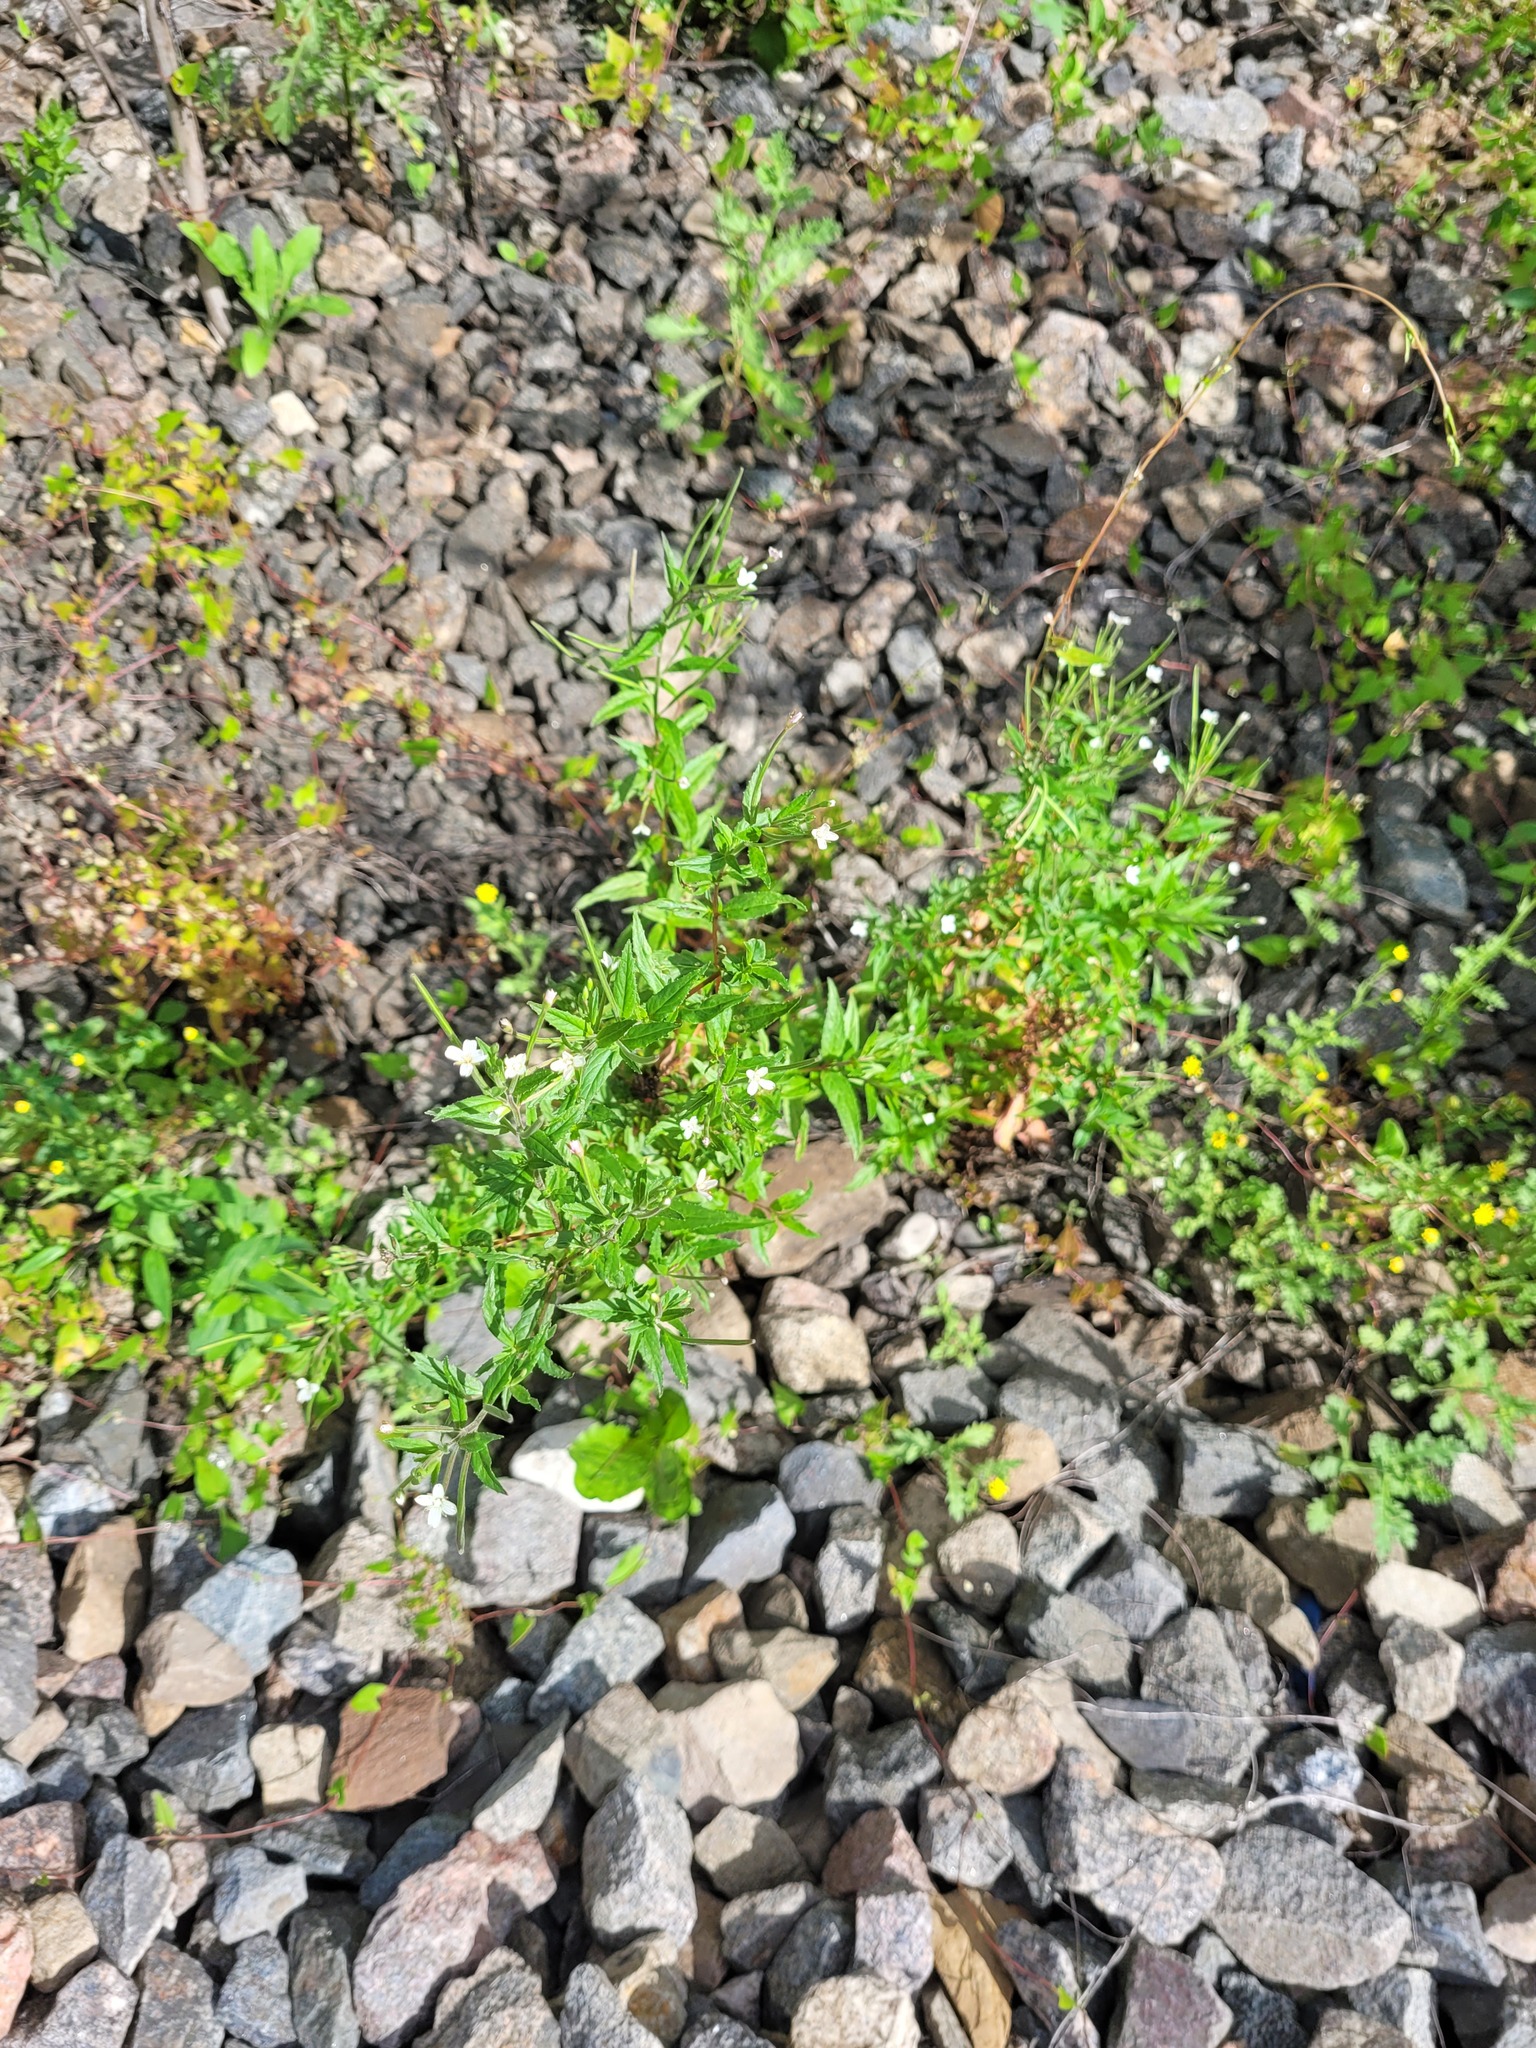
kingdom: Plantae
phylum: Tracheophyta
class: Magnoliopsida
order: Myrtales
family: Onagraceae
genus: Epilobium
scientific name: Epilobium pseudorubescens
